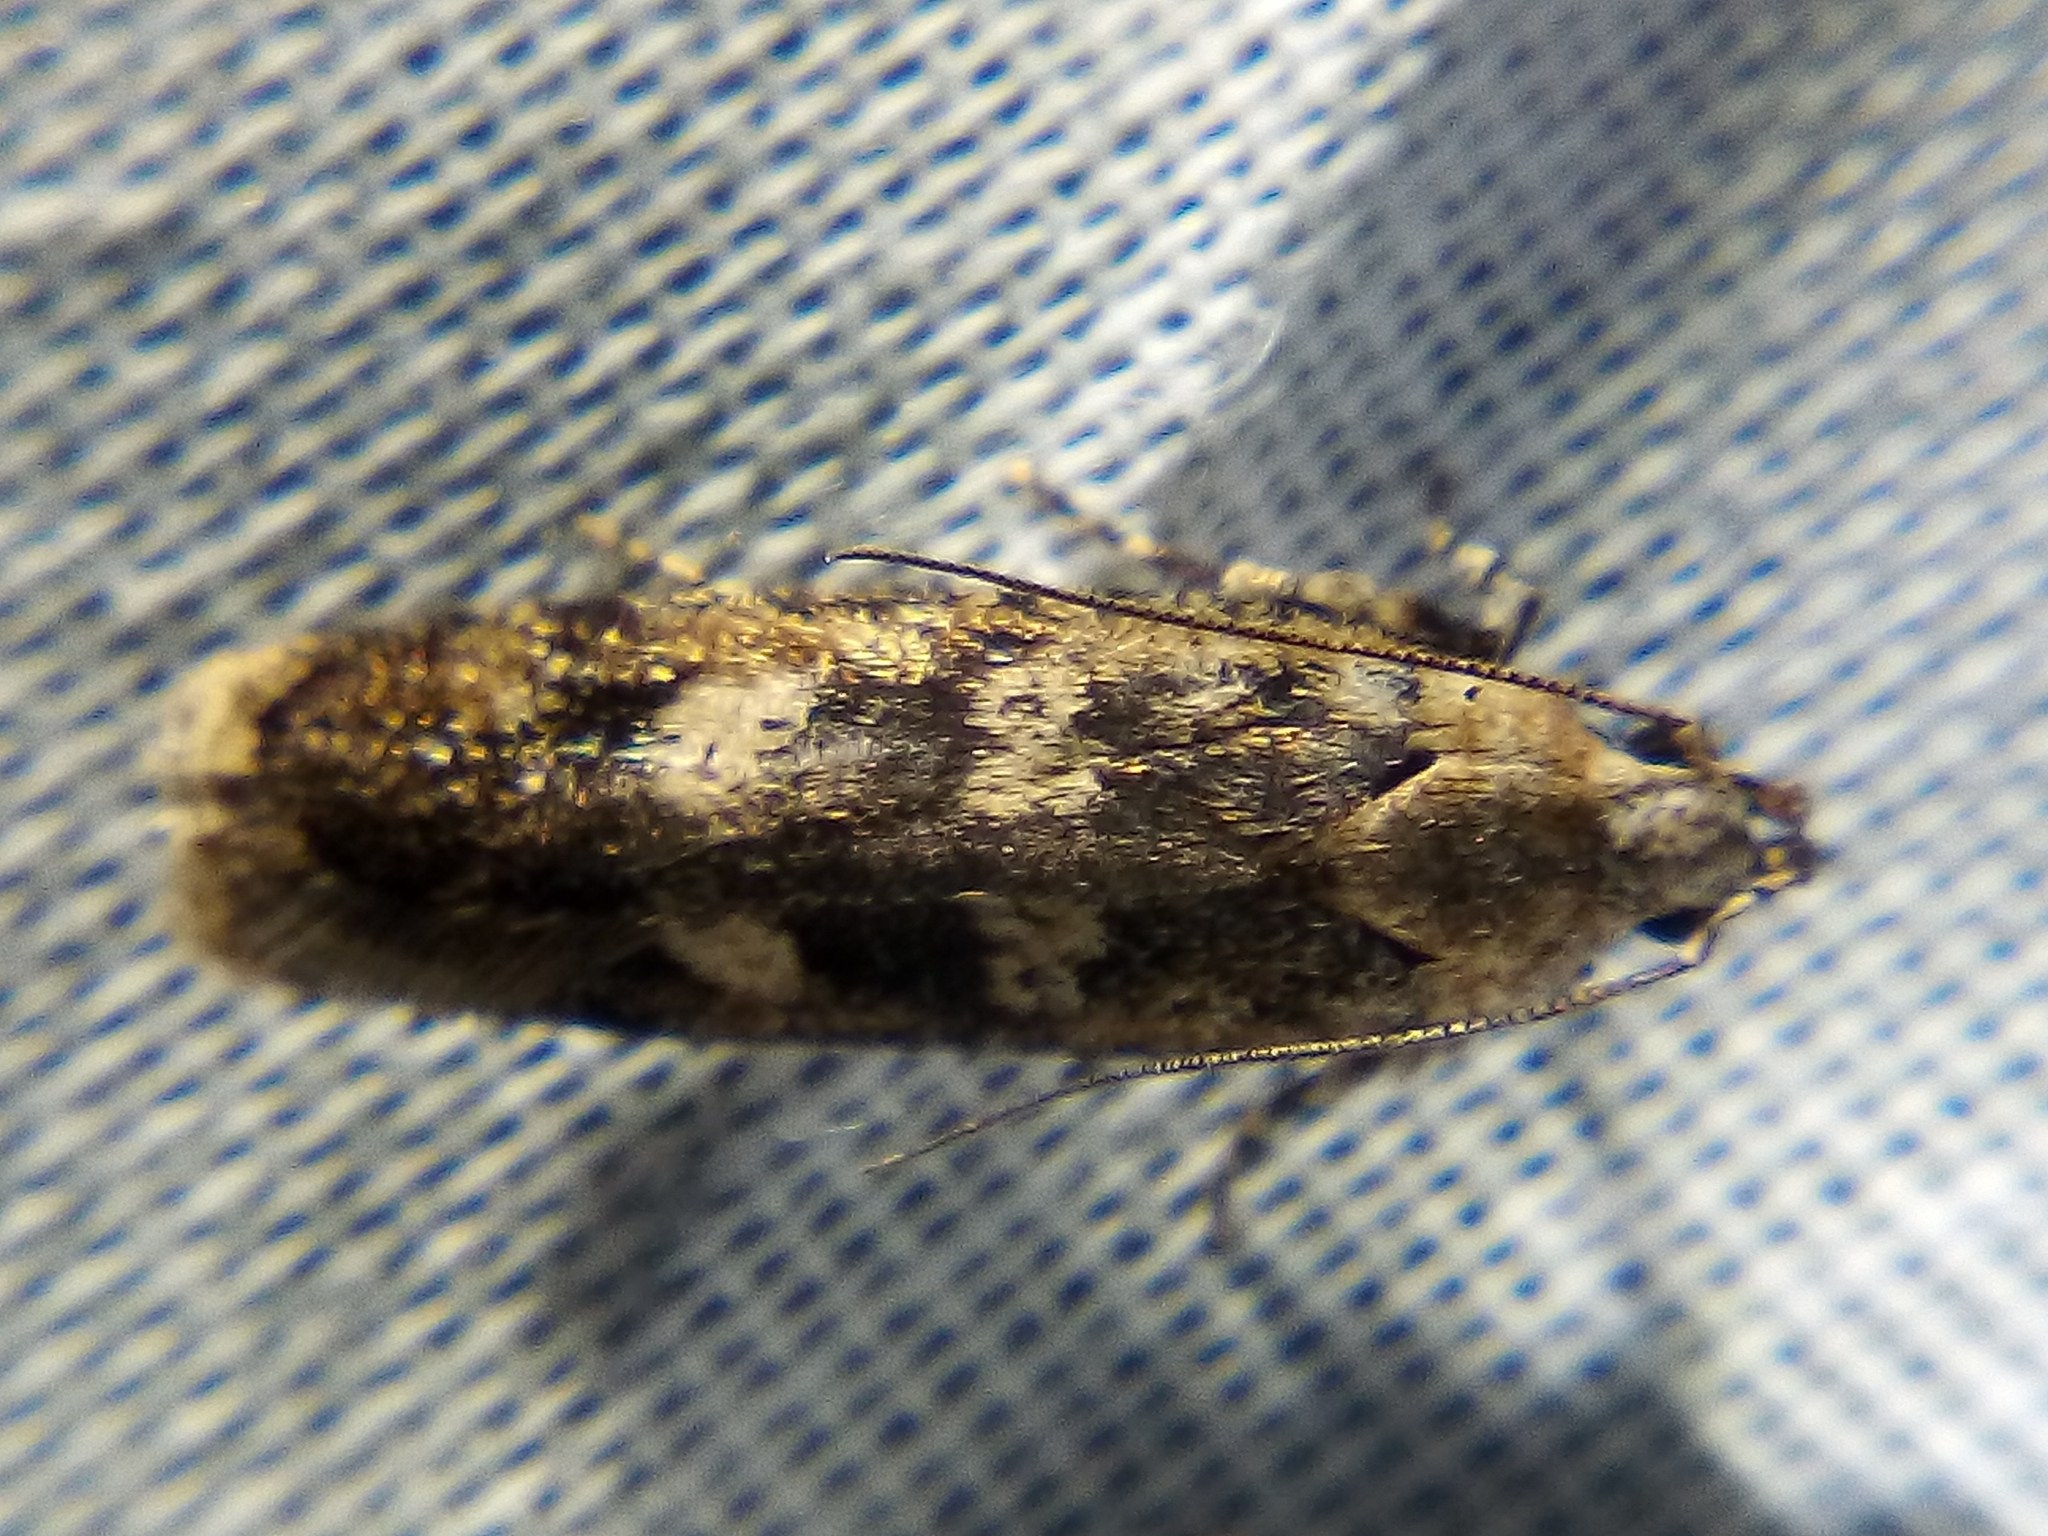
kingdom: Animalia
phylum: Arthropoda
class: Insecta
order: Lepidoptera
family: Gelechiidae
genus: Anisoplaca
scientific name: Anisoplaca cosmia
